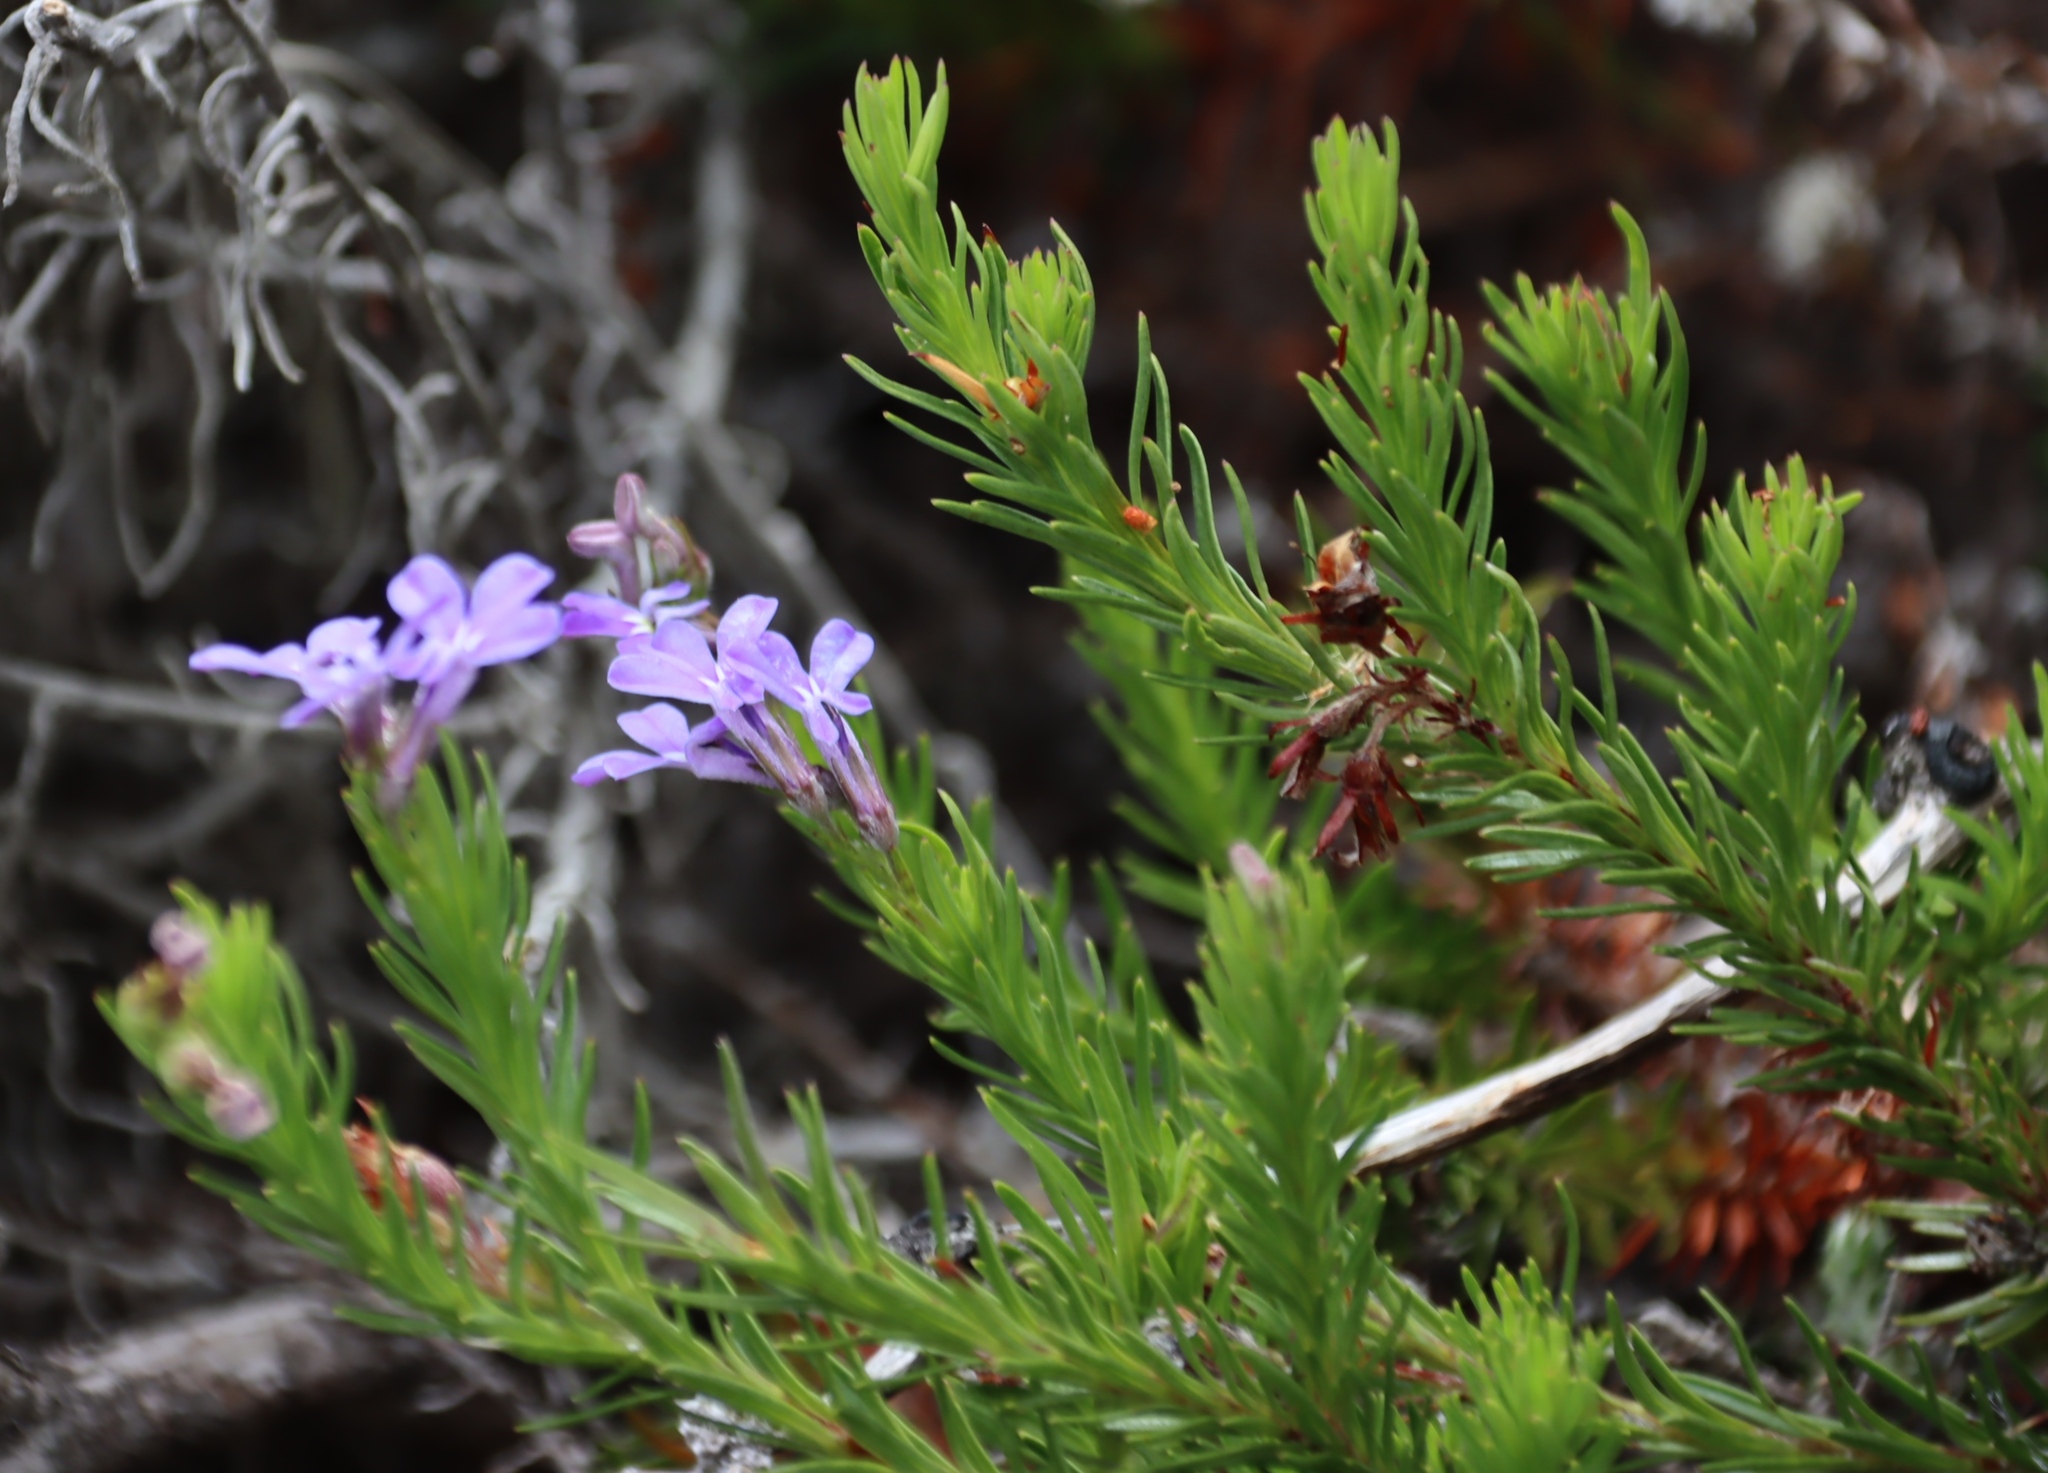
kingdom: Plantae
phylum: Tracheophyta
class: Magnoliopsida
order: Asterales
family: Campanulaceae
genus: Lobelia
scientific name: Lobelia pinifolia
